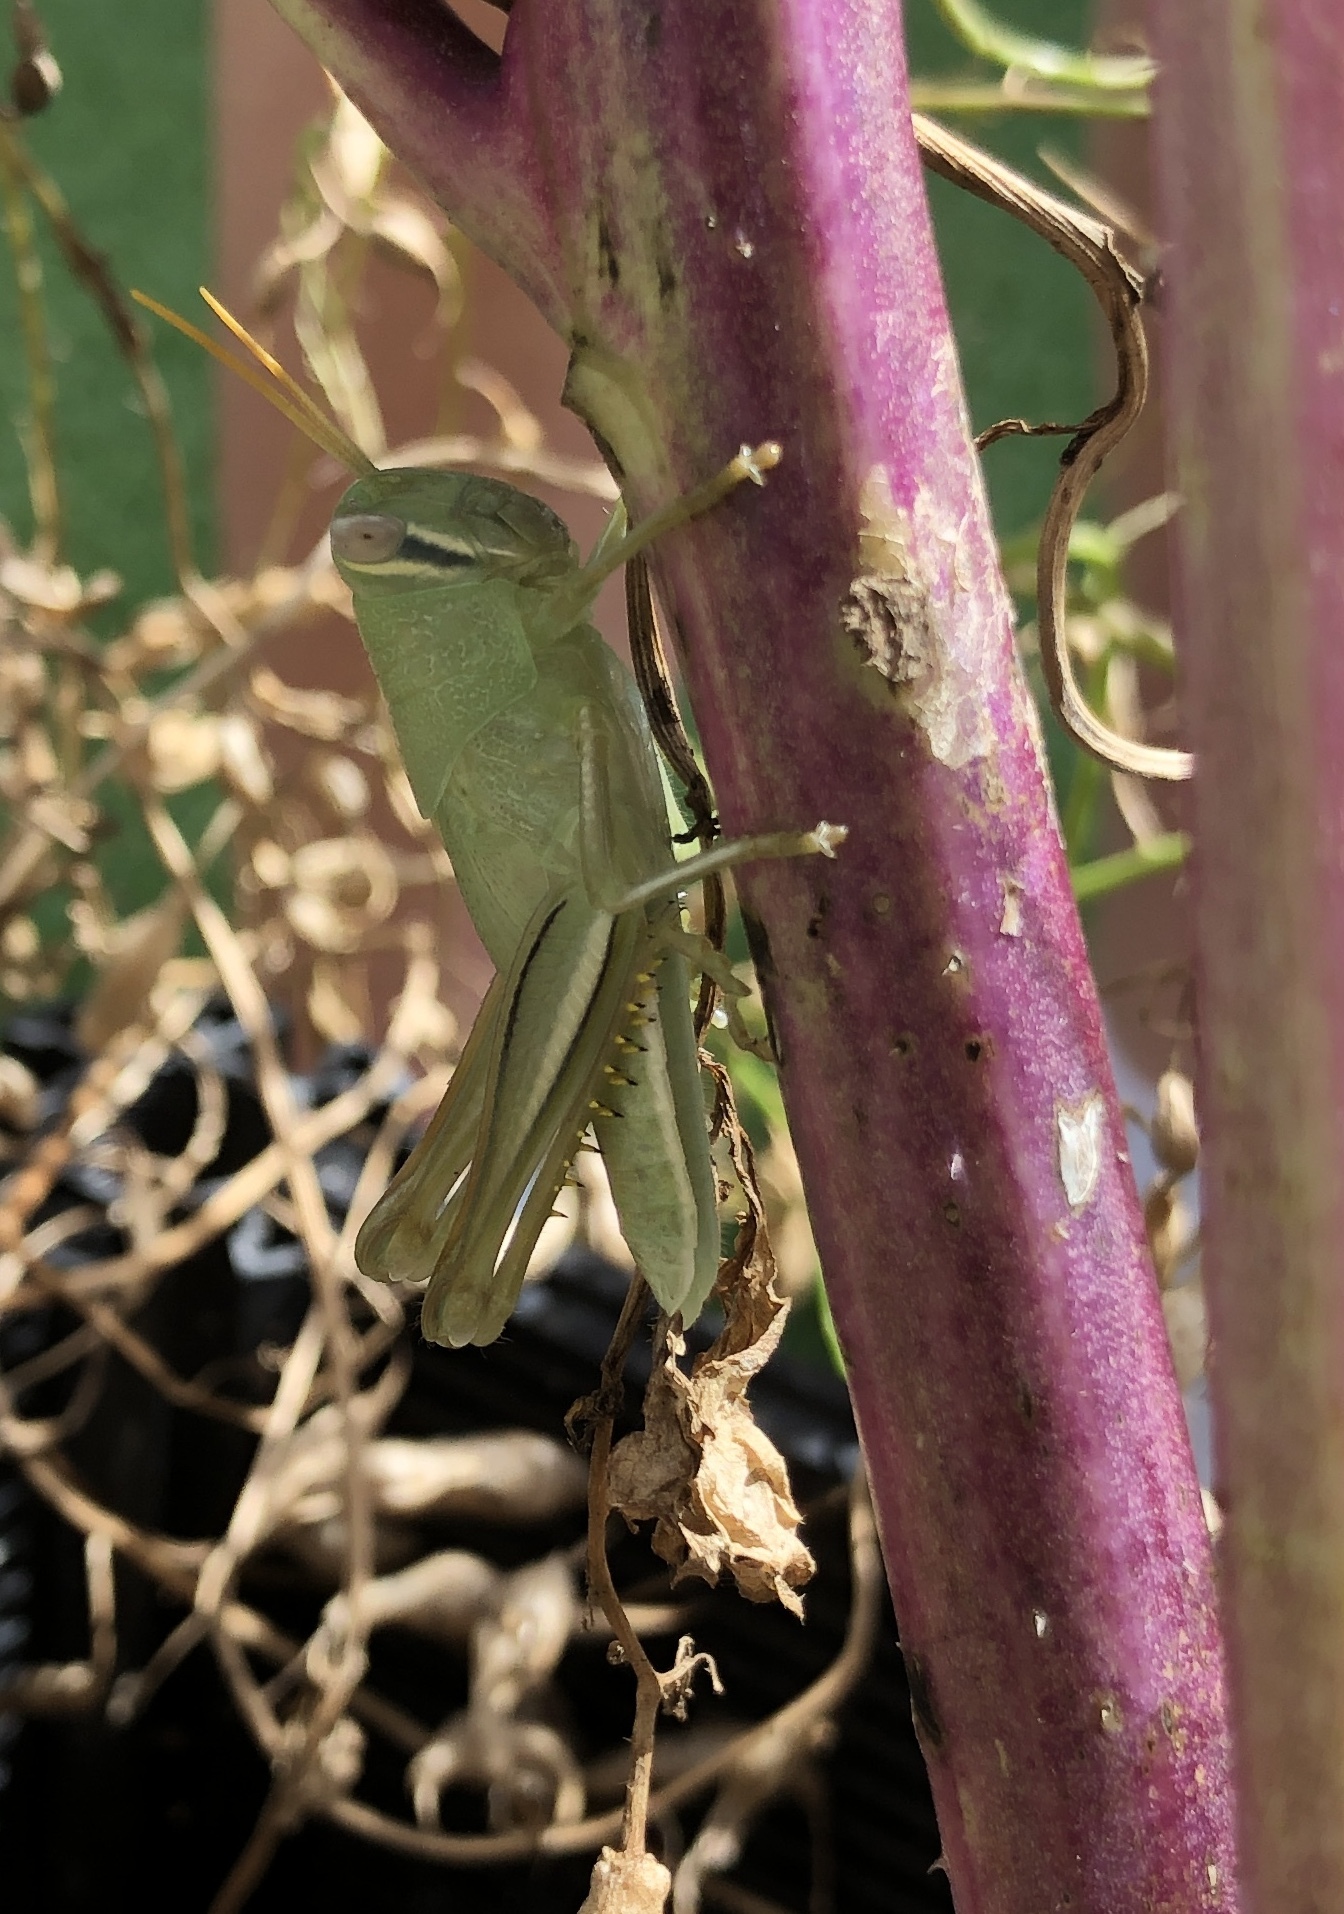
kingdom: Animalia
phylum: Arthropoda
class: Insecta
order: Orthoptera
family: Acrididae
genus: Austracris
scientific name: Austracris proxima
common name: Confusing spur-throated locust
